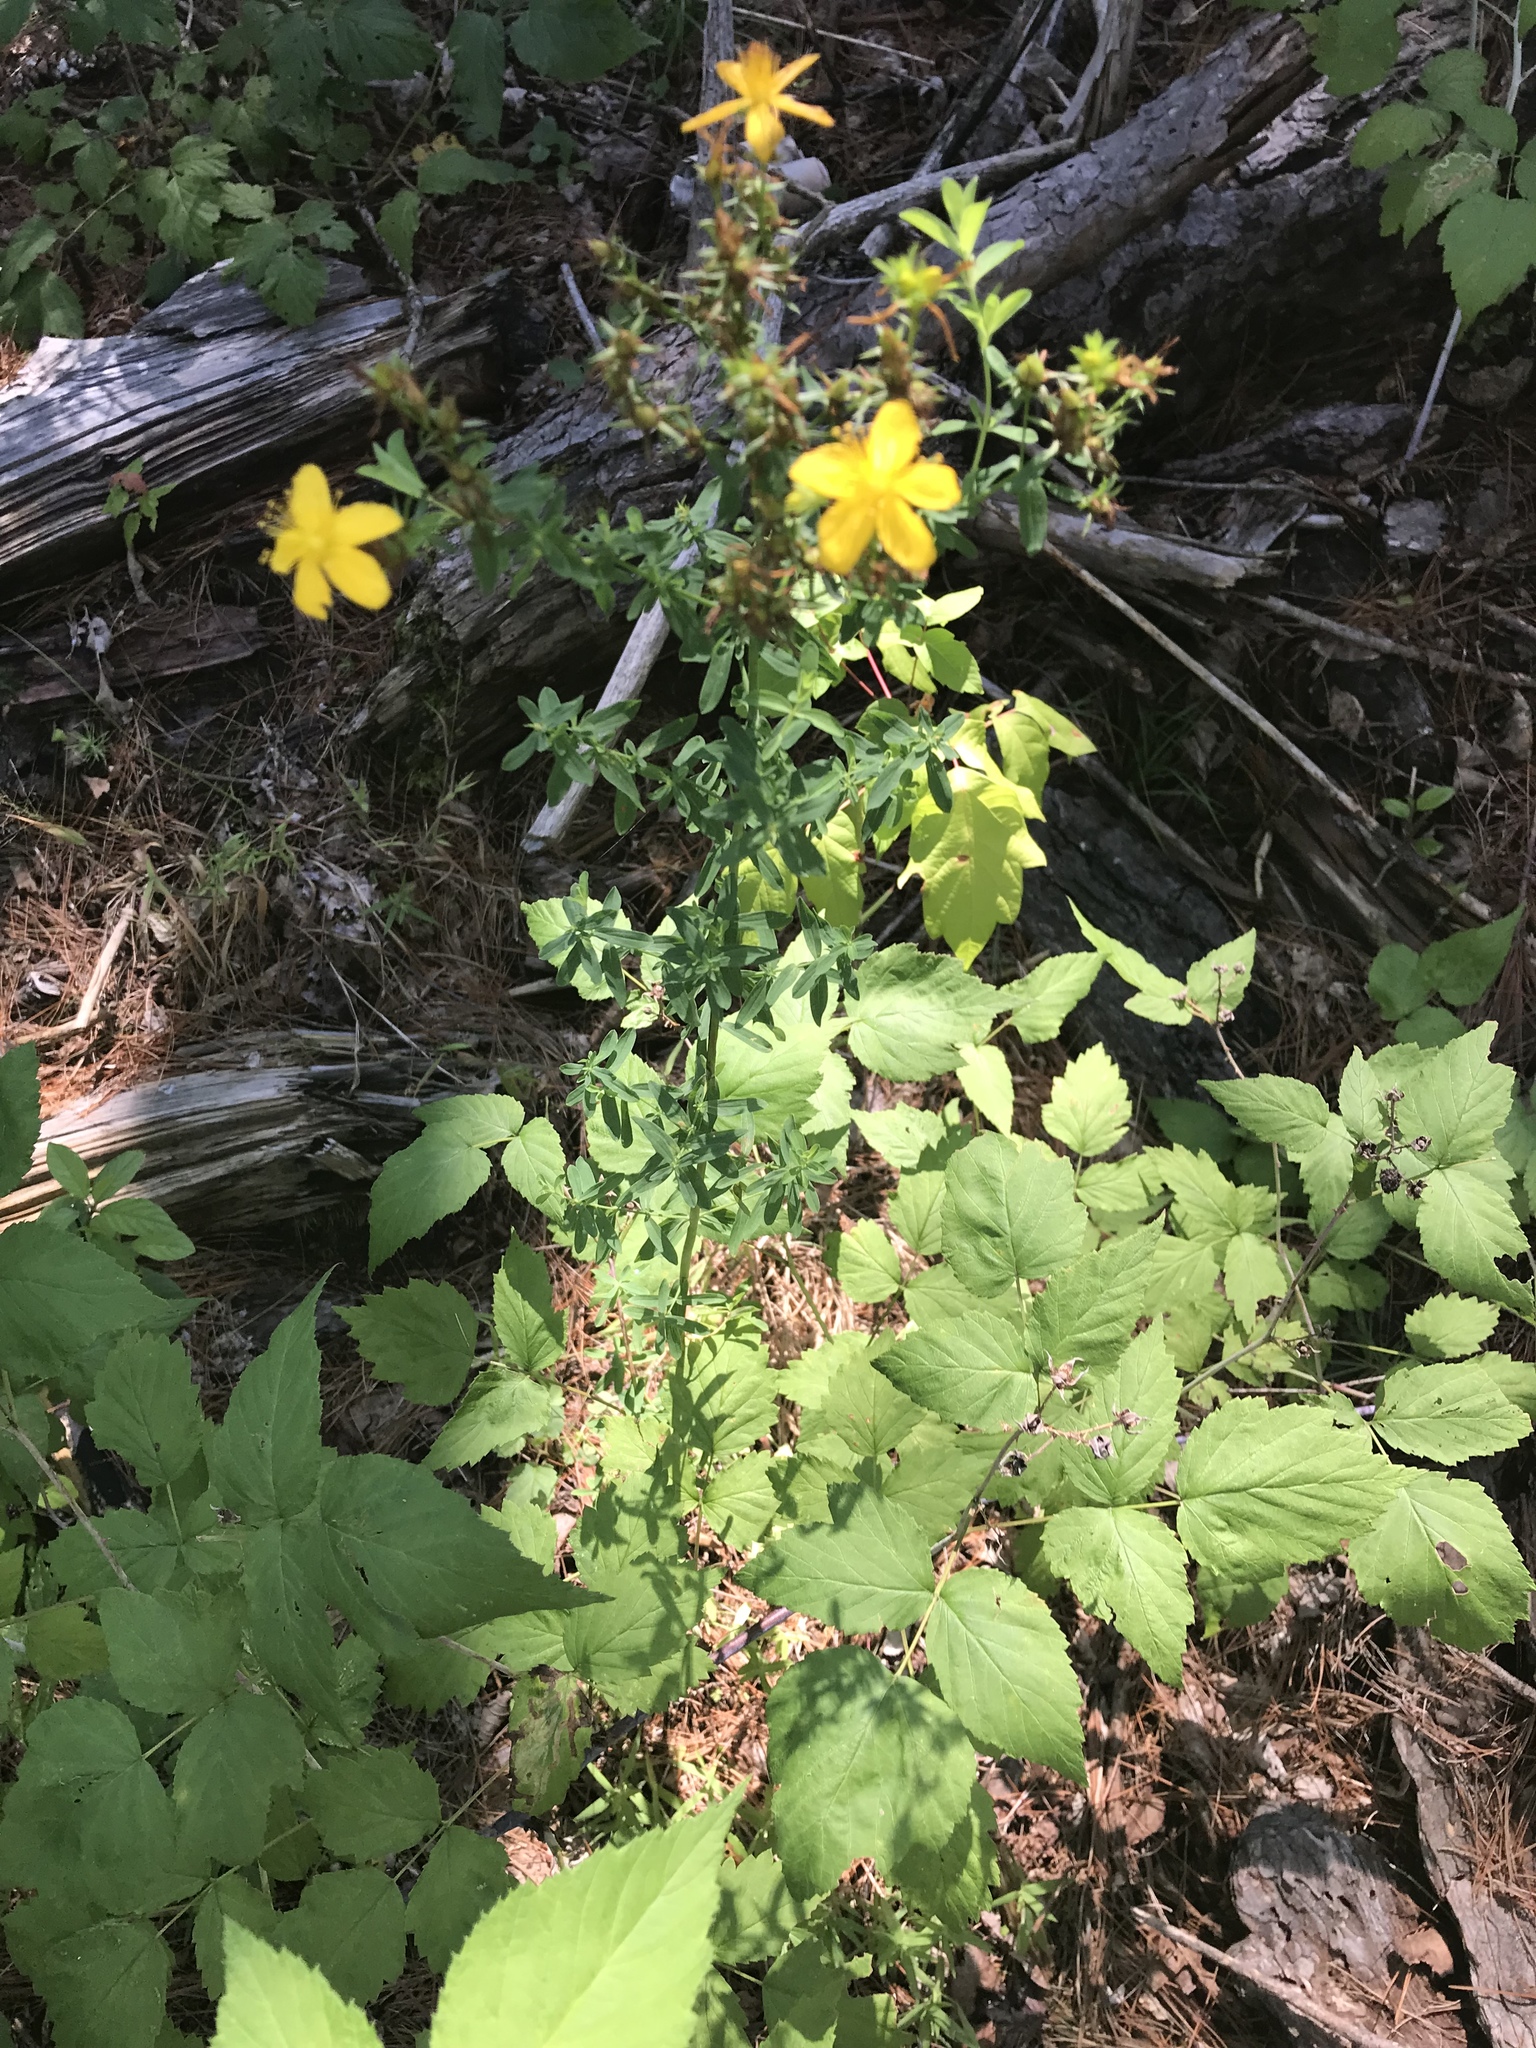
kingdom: Plantae
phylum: Tracheophyta
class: Magnoliopsida
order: Malpighiales
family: Hypericaceae
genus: Hypericum
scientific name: Hypericum perforatum
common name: Common st. johnswort
